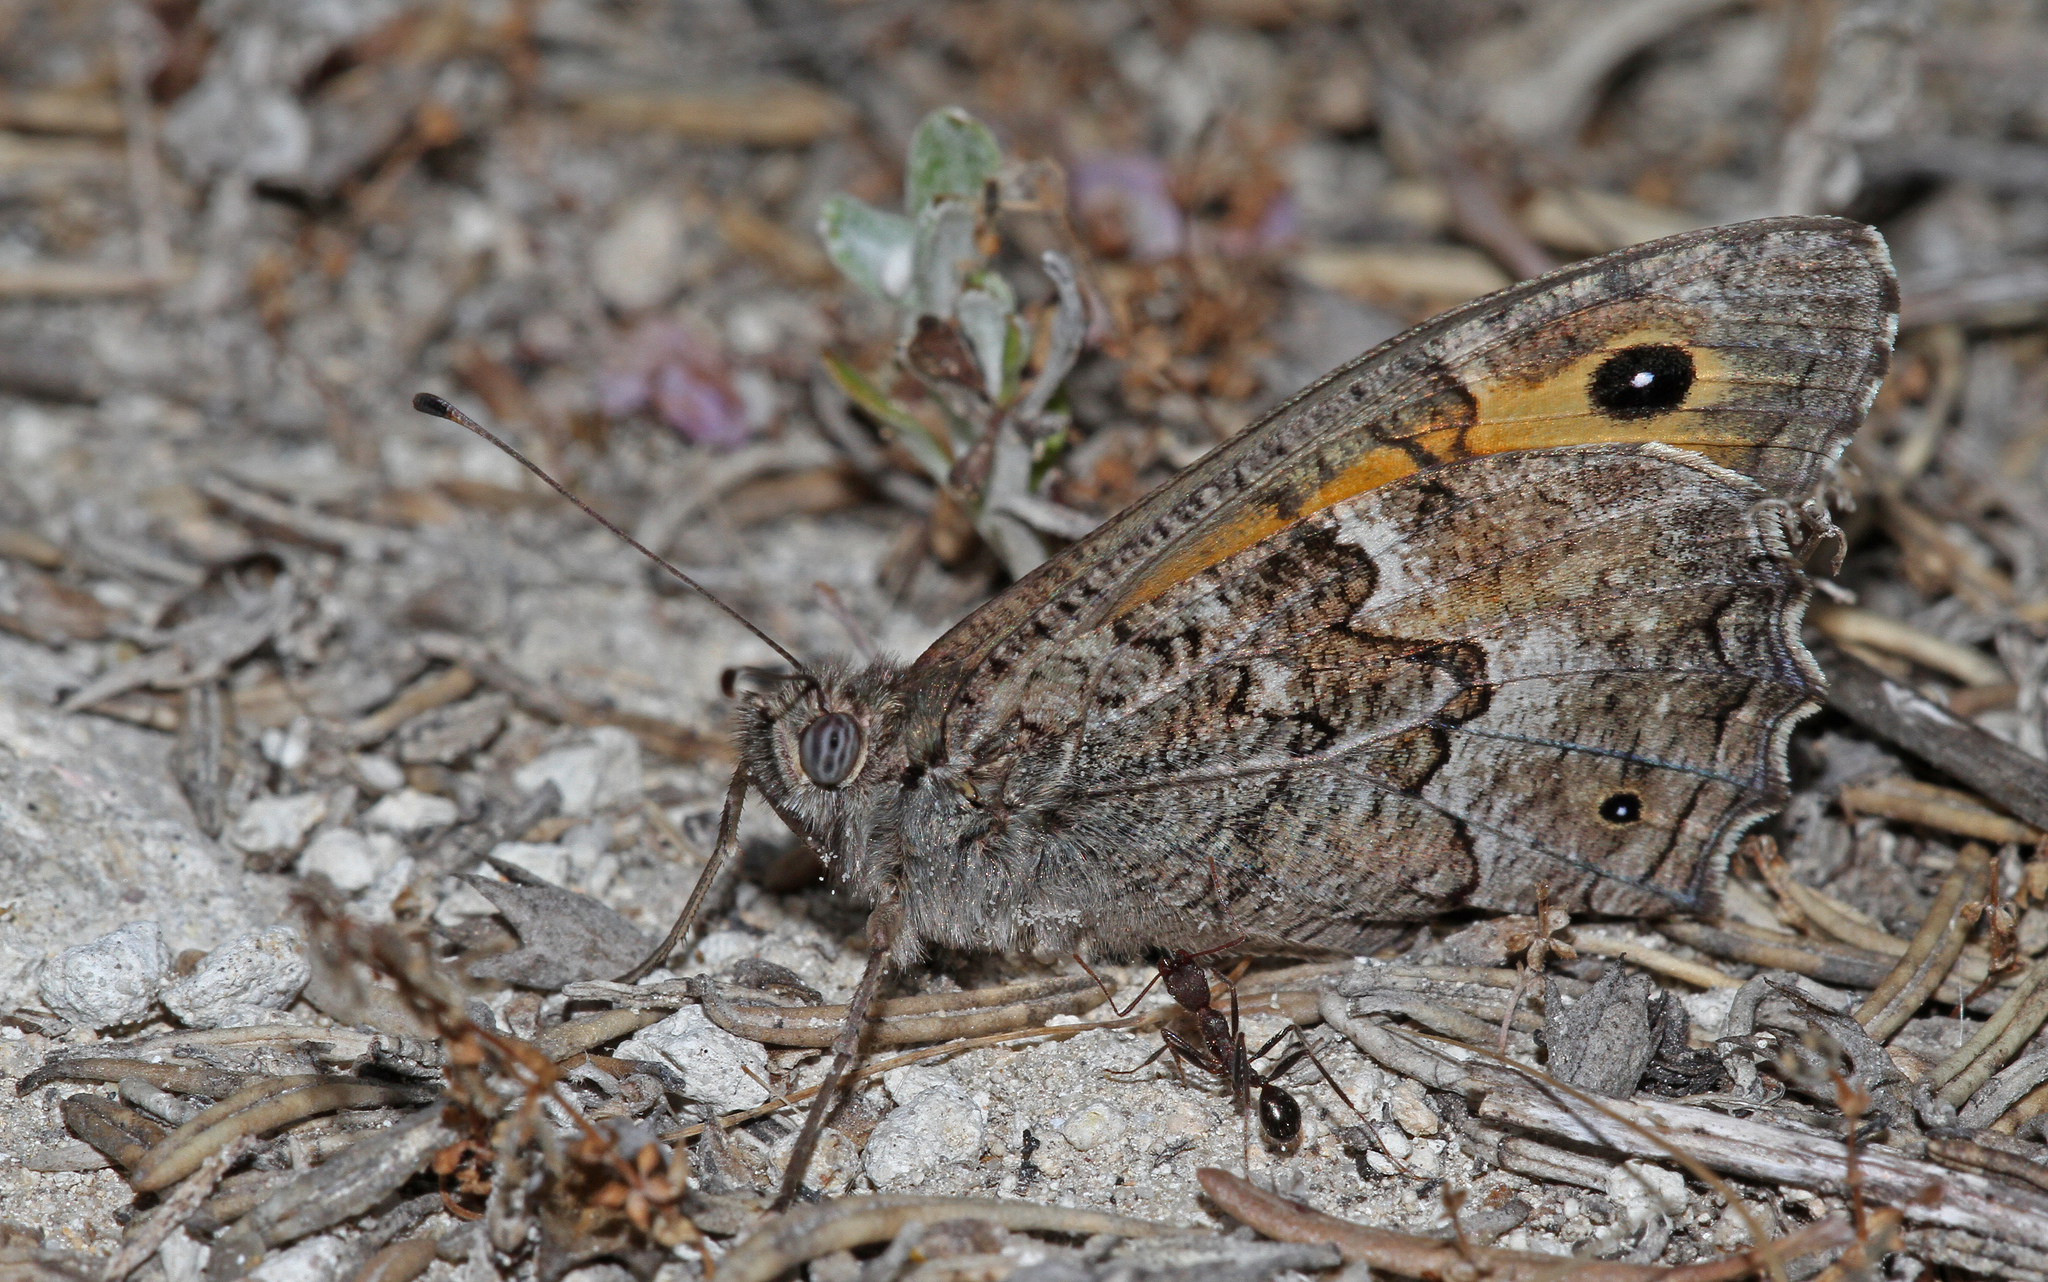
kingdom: Animalia
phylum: Arthropoda
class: Insecta
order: Lepidoptera
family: Nymphalidae
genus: Hipparchia
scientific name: Hipparchia cypriensis
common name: Cyprus grayling
